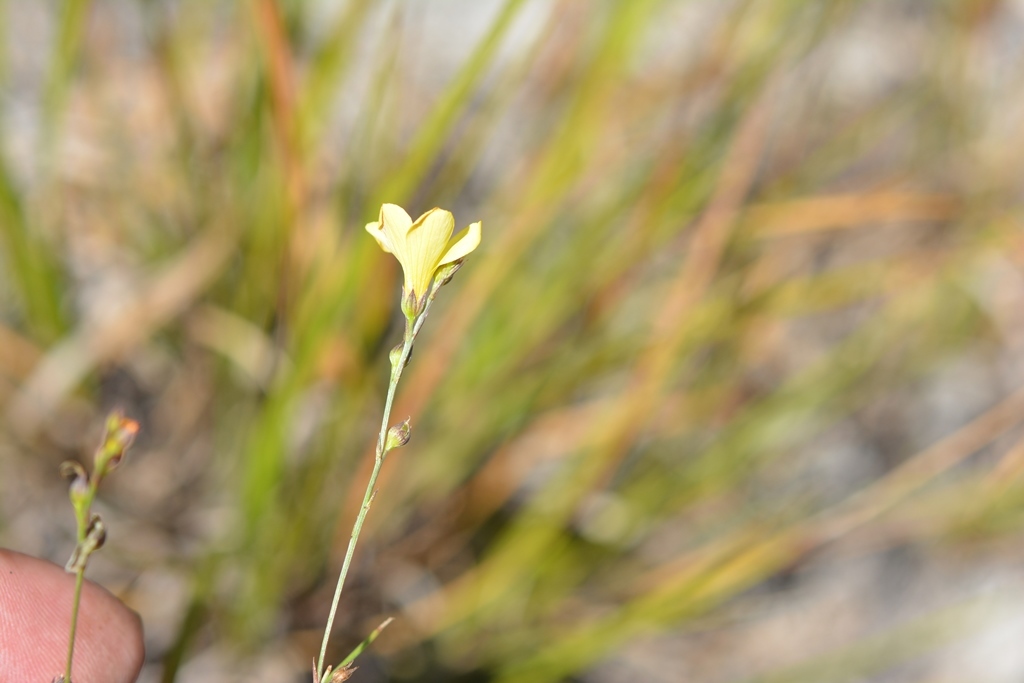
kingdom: Plantae
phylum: Tracheophyta
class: Magnoliopsida
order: Malpighiales
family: Linaceae
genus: Linum
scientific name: Linum rupestre
